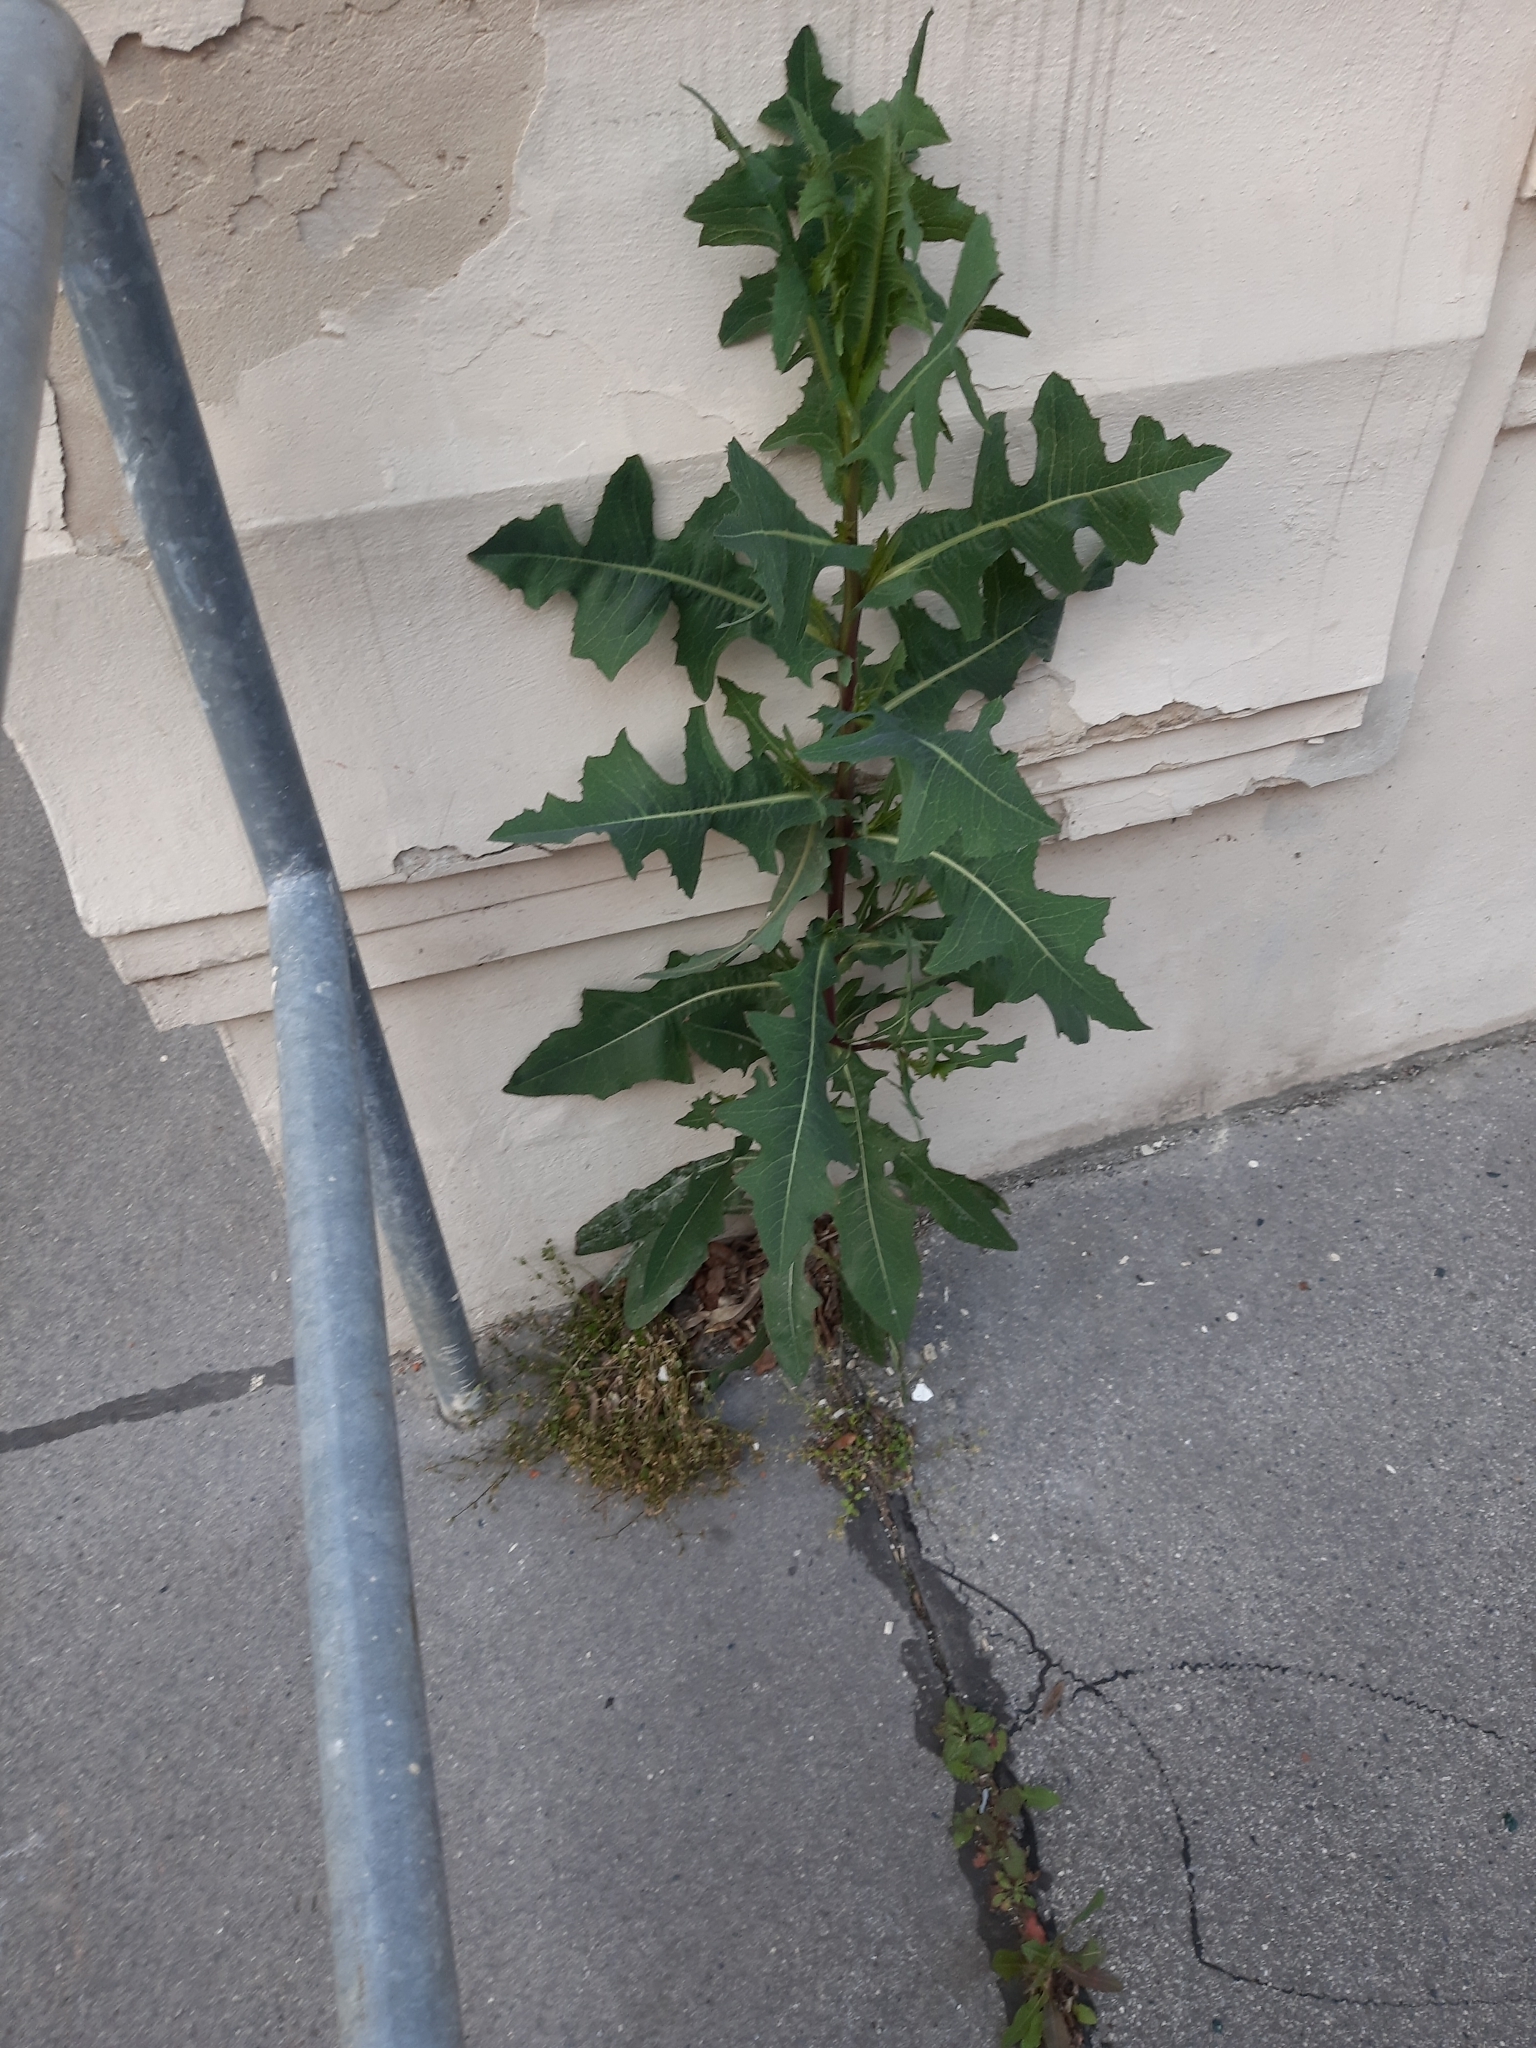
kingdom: Plantae
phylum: Tracheophyta
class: Magnoliopsida
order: Asterales
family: Asteraceae
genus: Lactuca
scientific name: Lactuca serriola
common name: Prickly lettuce
